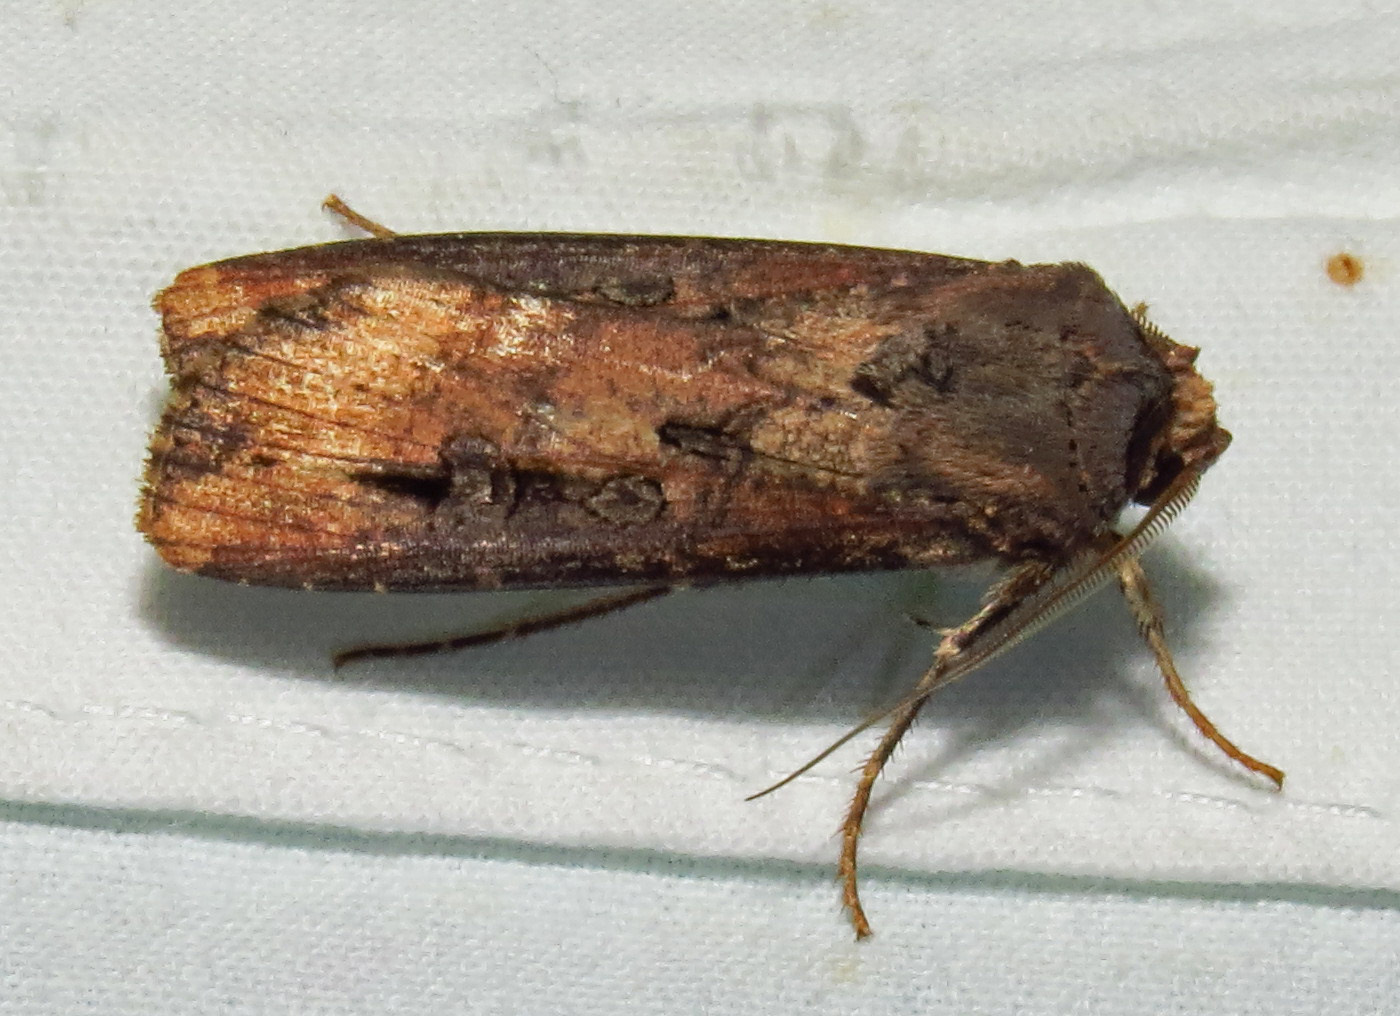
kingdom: Animalia
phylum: Arthropoda
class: Insecta
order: Lepidoptera
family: Noctuidae
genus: Agrotis
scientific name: Agrotis ipsilon
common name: Dark sword-grass
